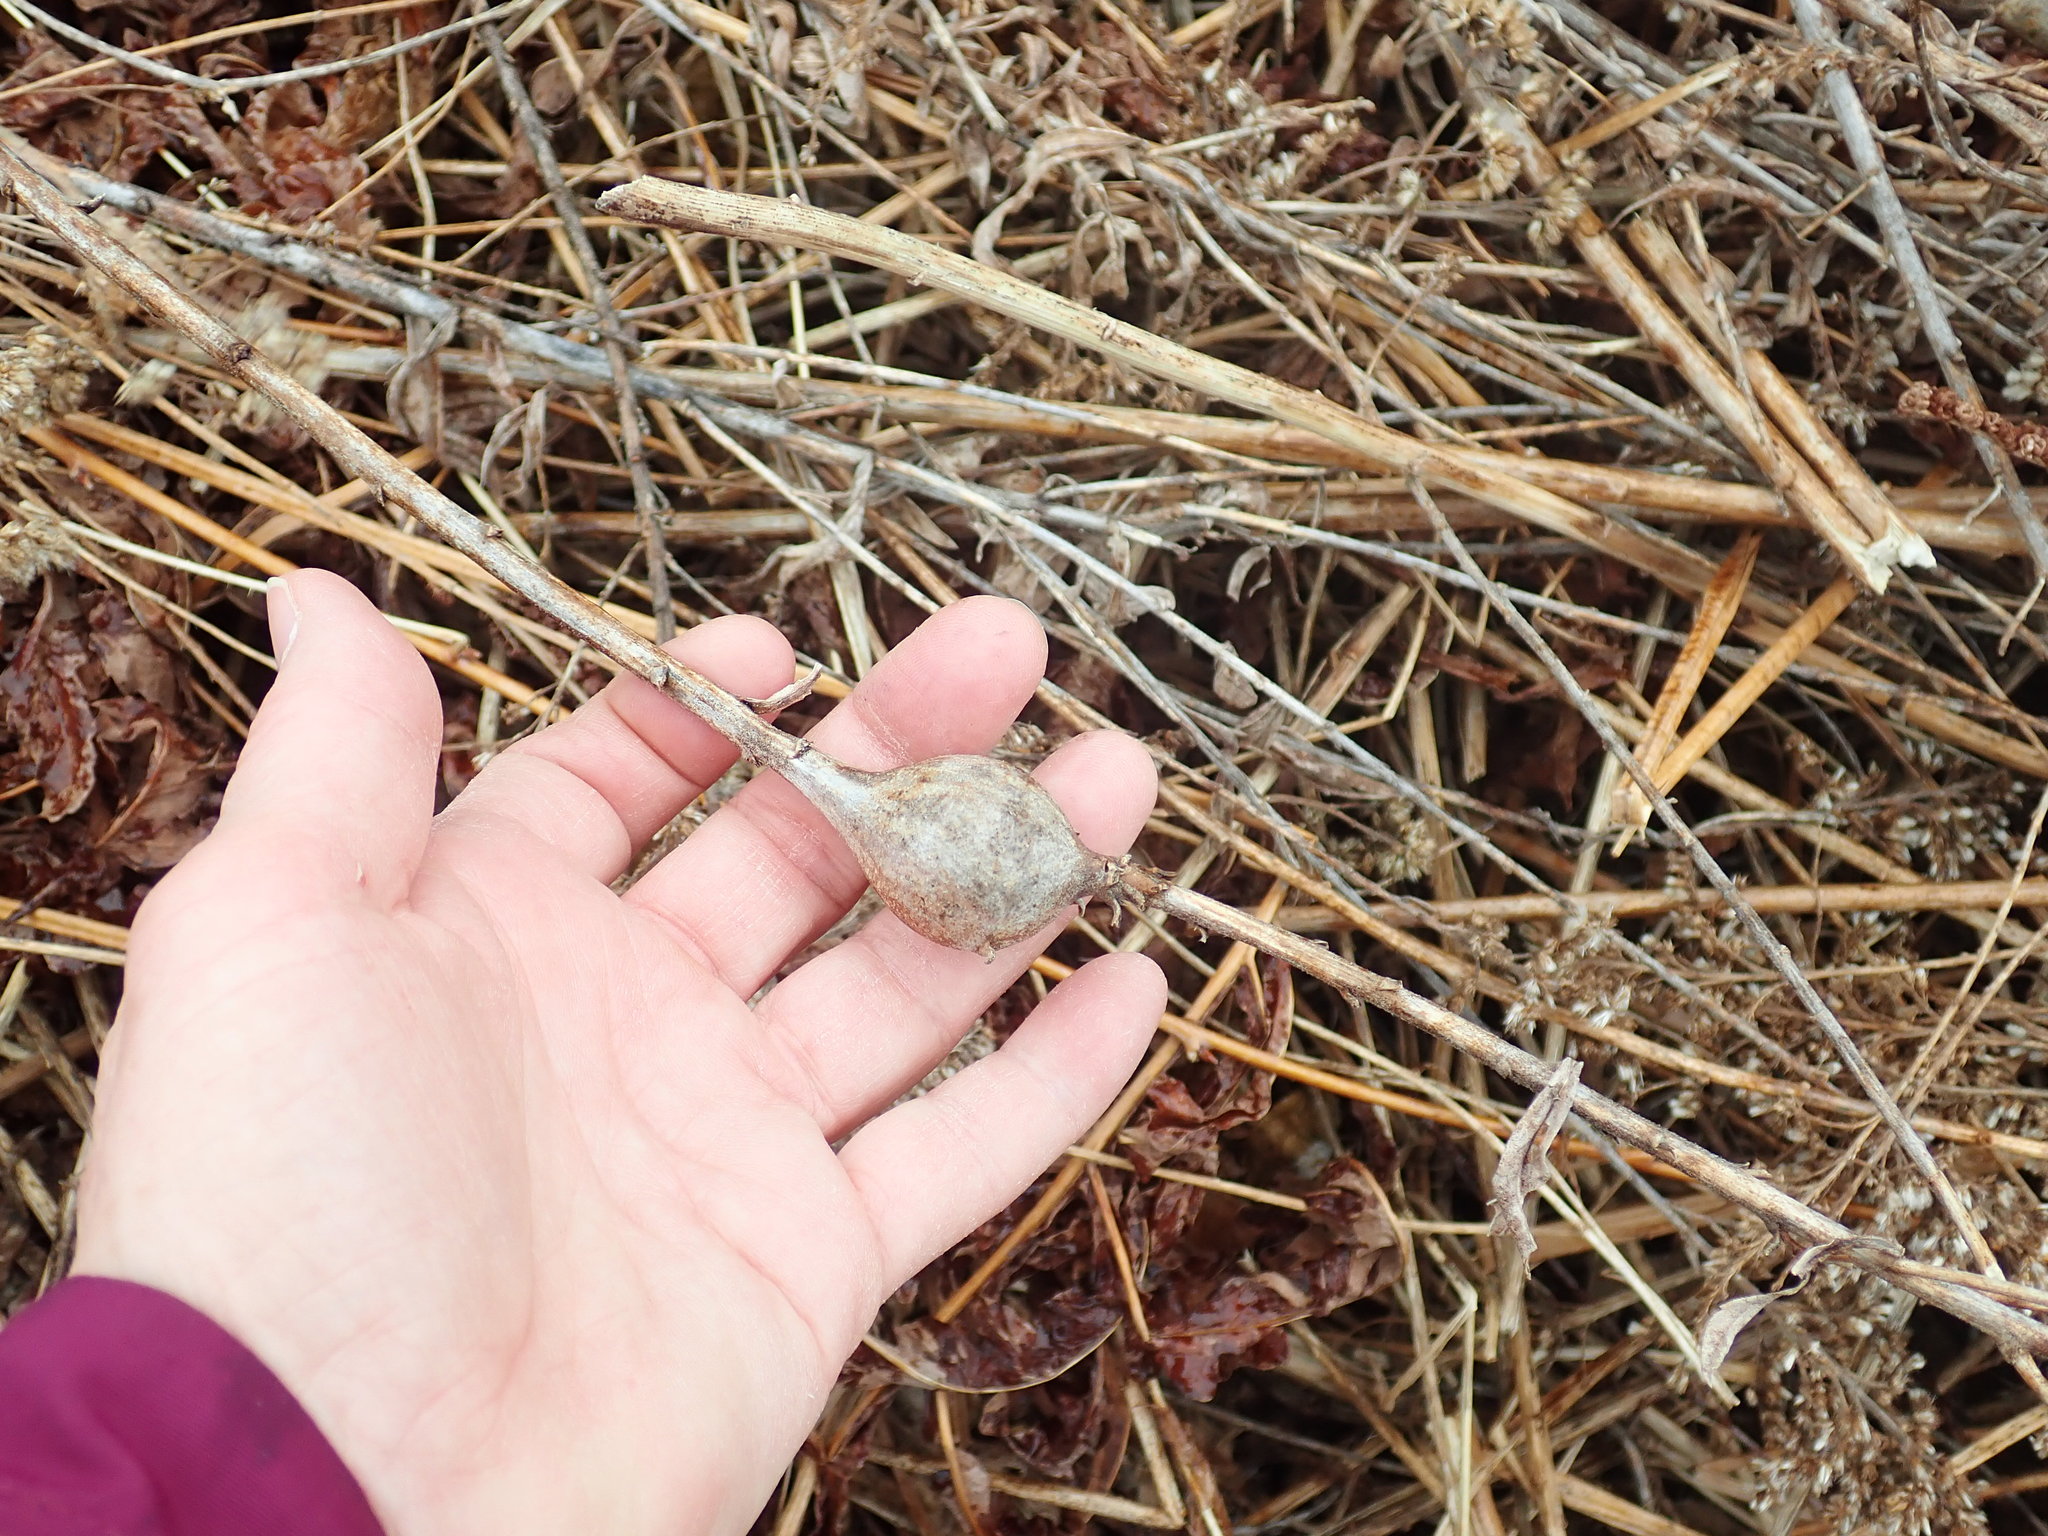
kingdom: Animalia
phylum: Arthropoda
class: Insecta
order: Diptera
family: Tephritidae
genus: Eurosta
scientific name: Eurosta solidaginis
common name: Goldenrod gall fly
